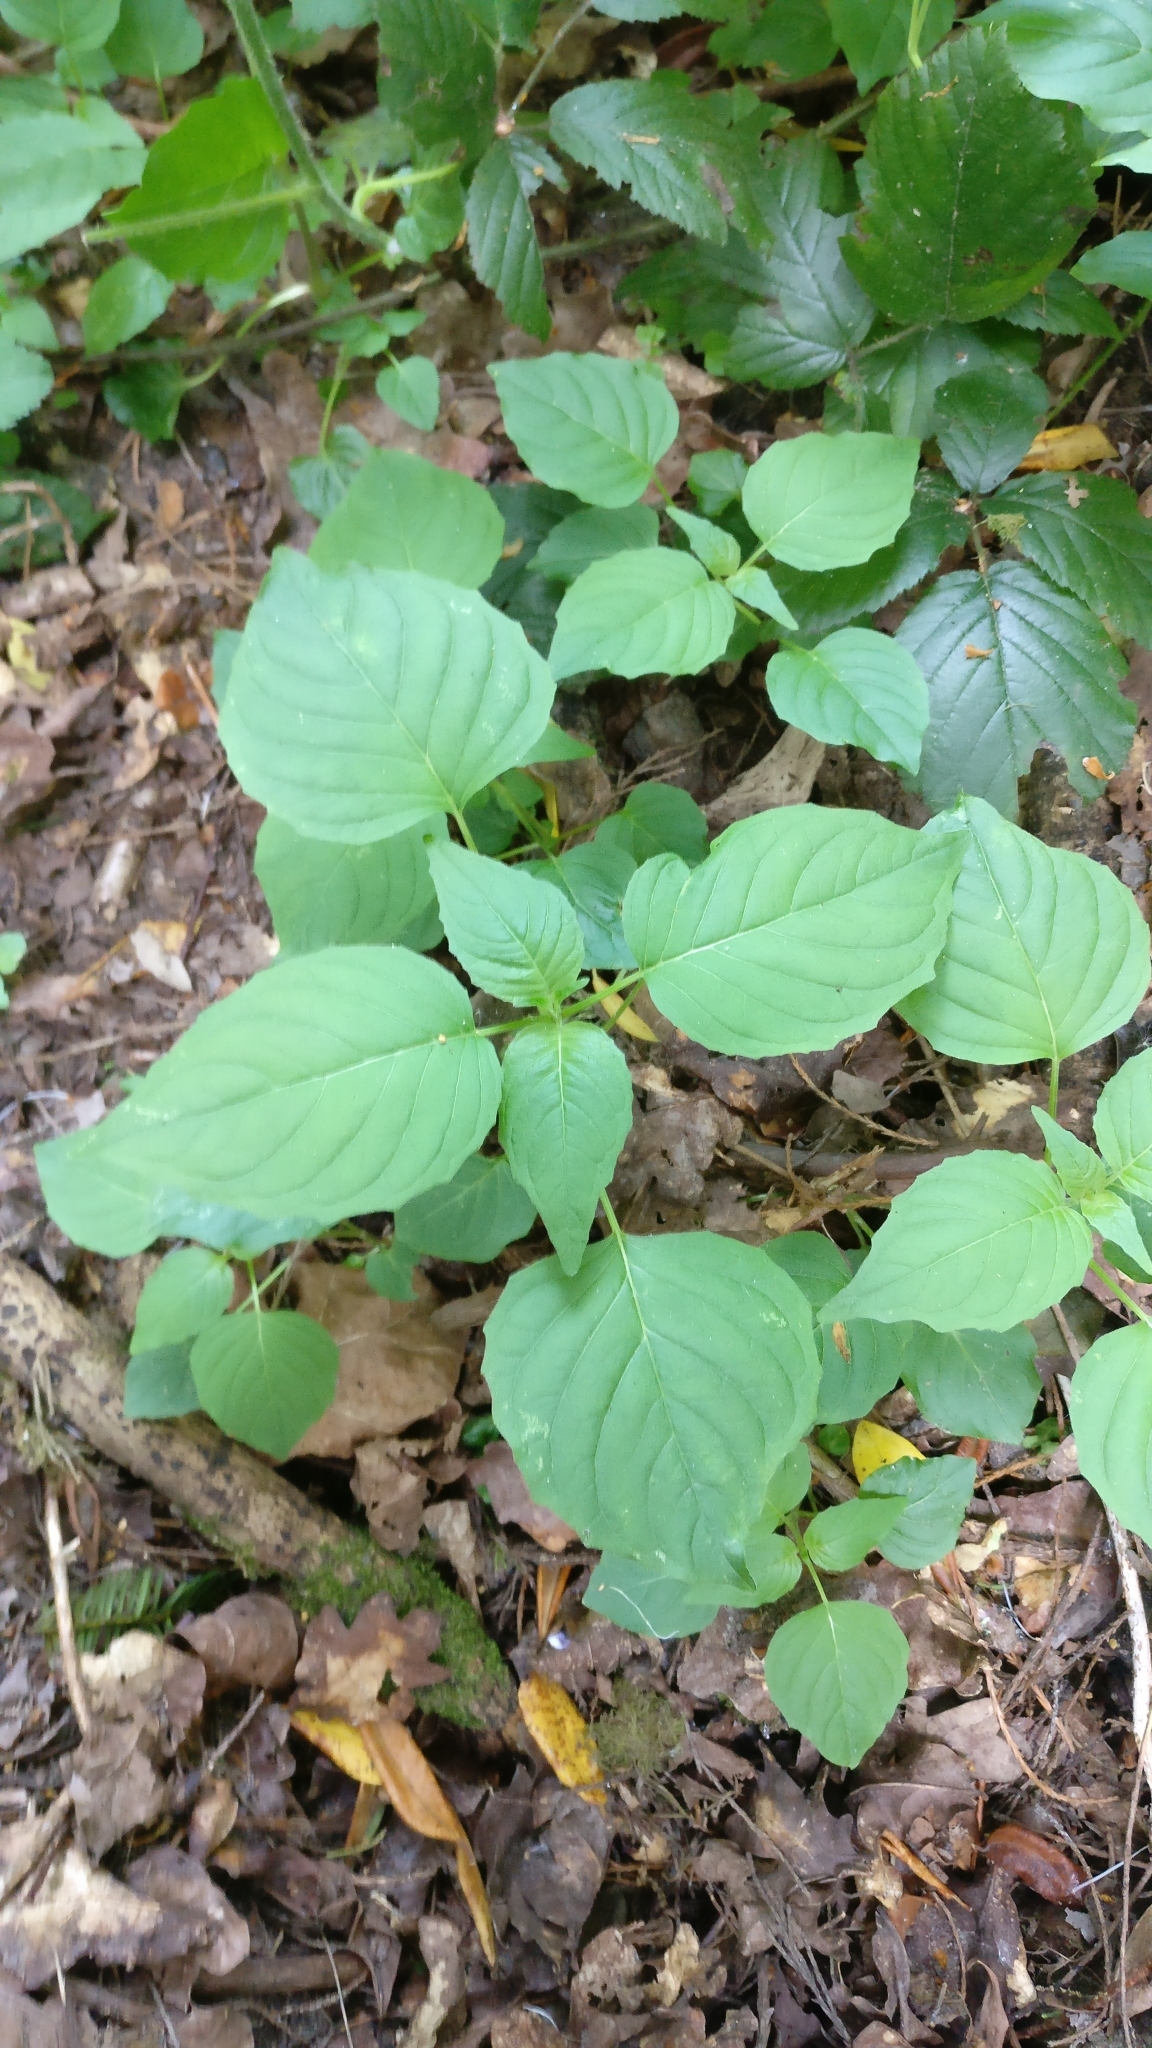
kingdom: Plantae
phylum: Tracheophyta
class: Magnoliopsida
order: Myrtales
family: Onagraceae
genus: Circaea
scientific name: Circaea lutetiana
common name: Enchanter's-nightshade
